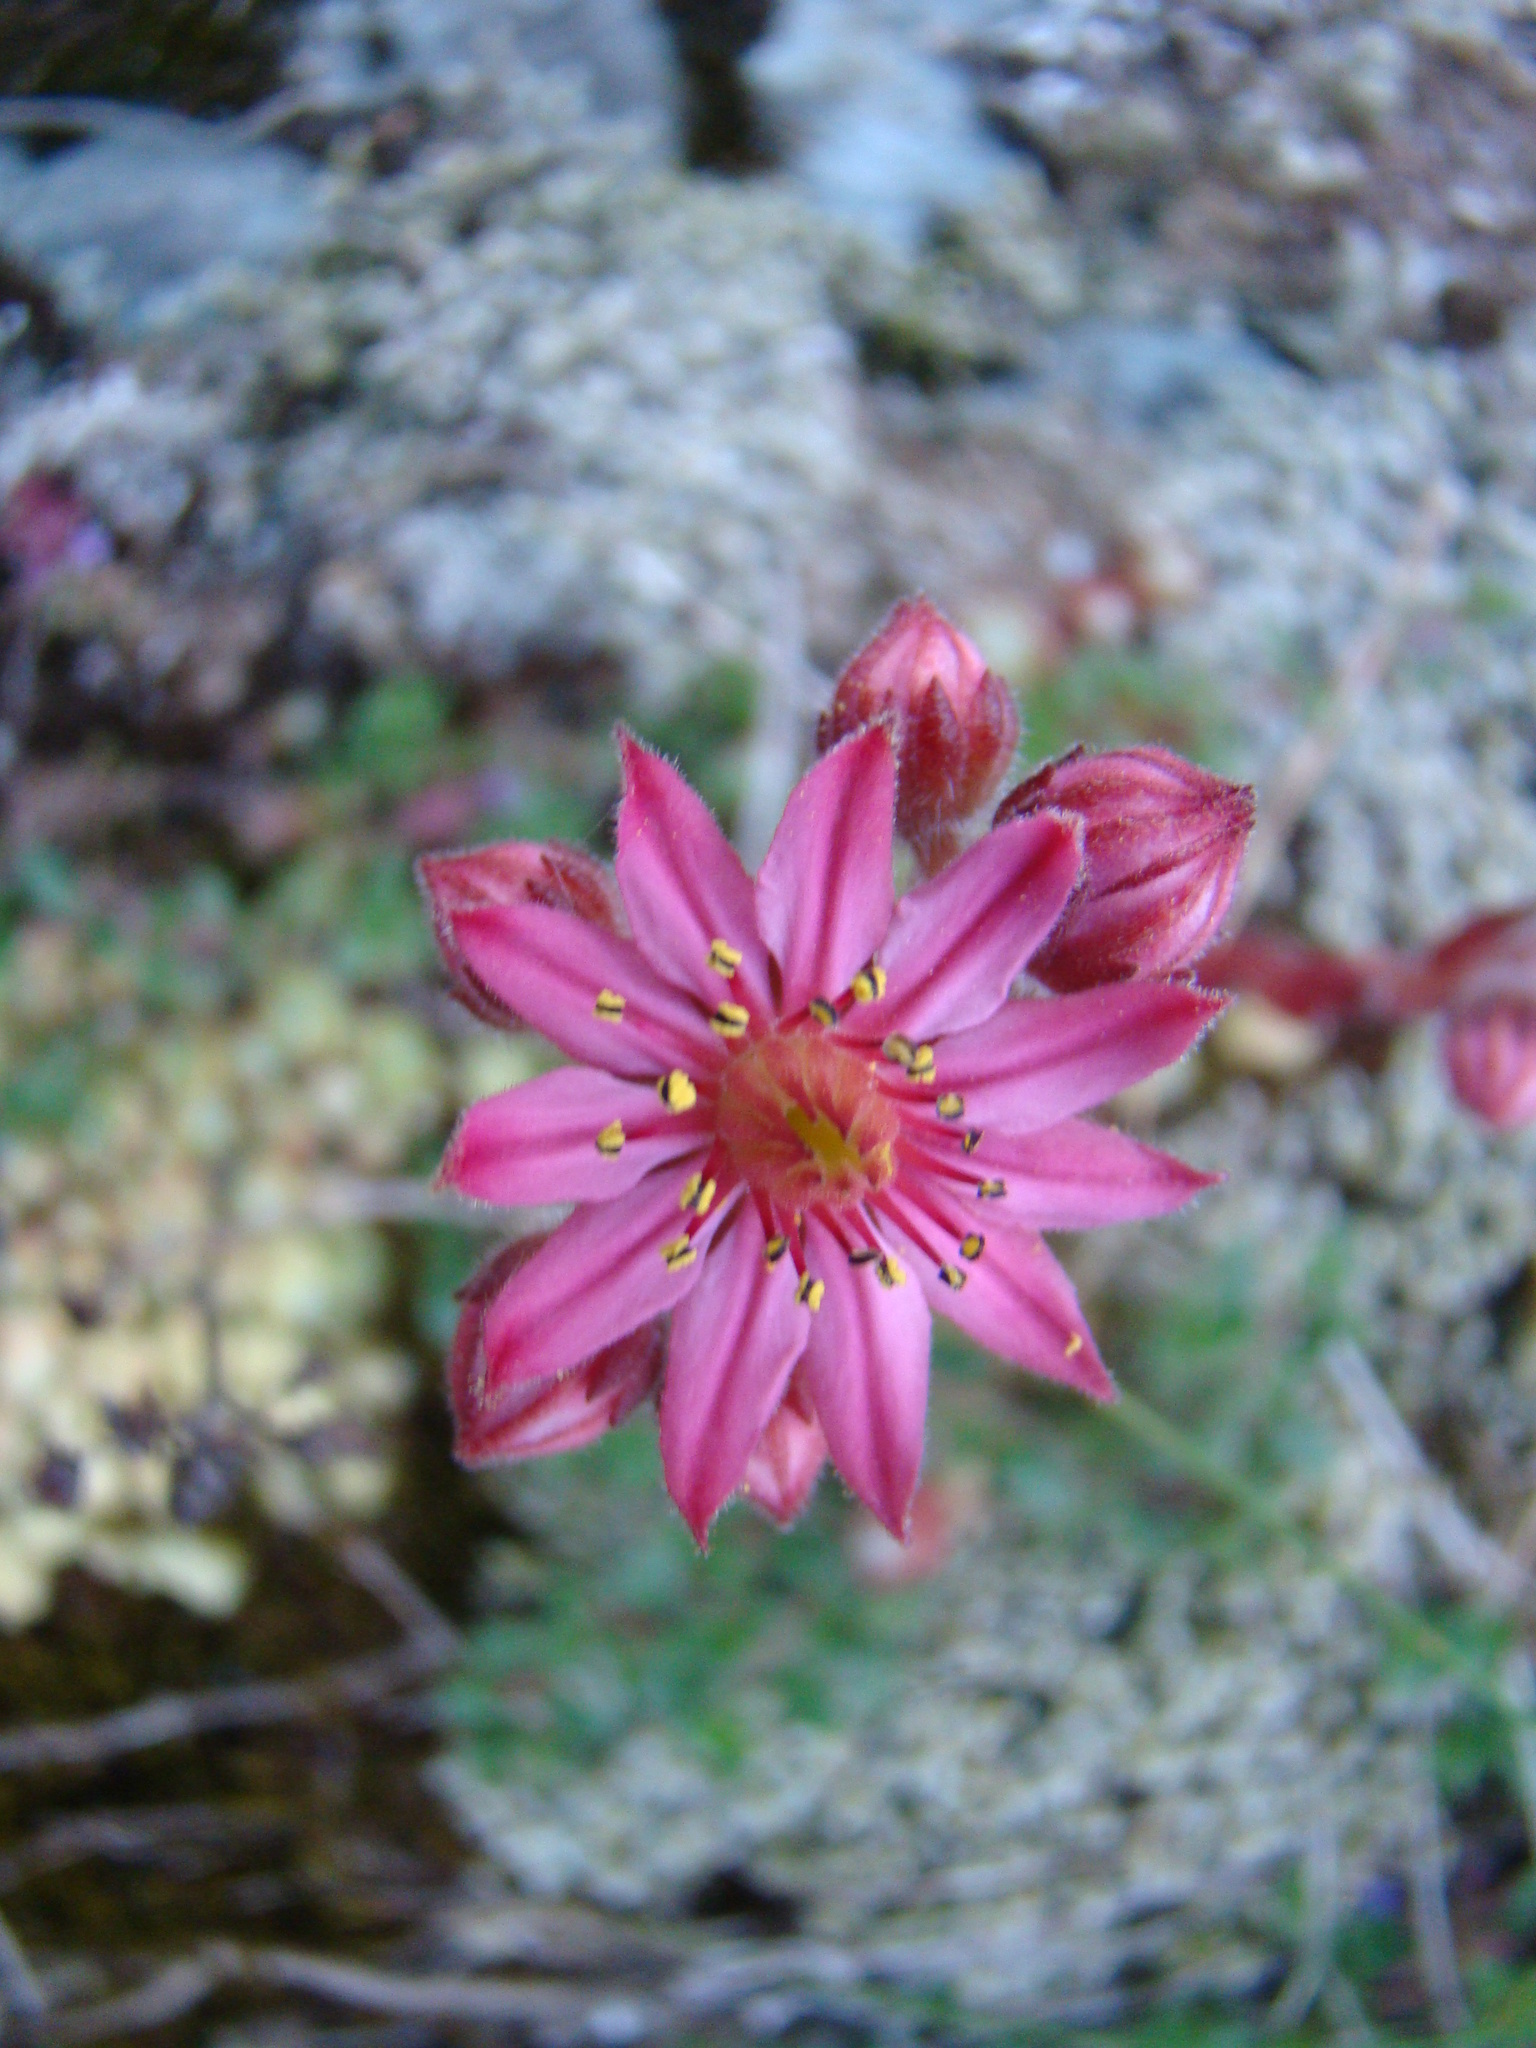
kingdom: Plantae
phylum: Tracheophyta
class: Magnoliopsida
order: Saxifragales
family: Crassulaceae
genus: Sempervivum
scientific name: Sempervivum arachnoideum
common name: Cobweb house-leek
